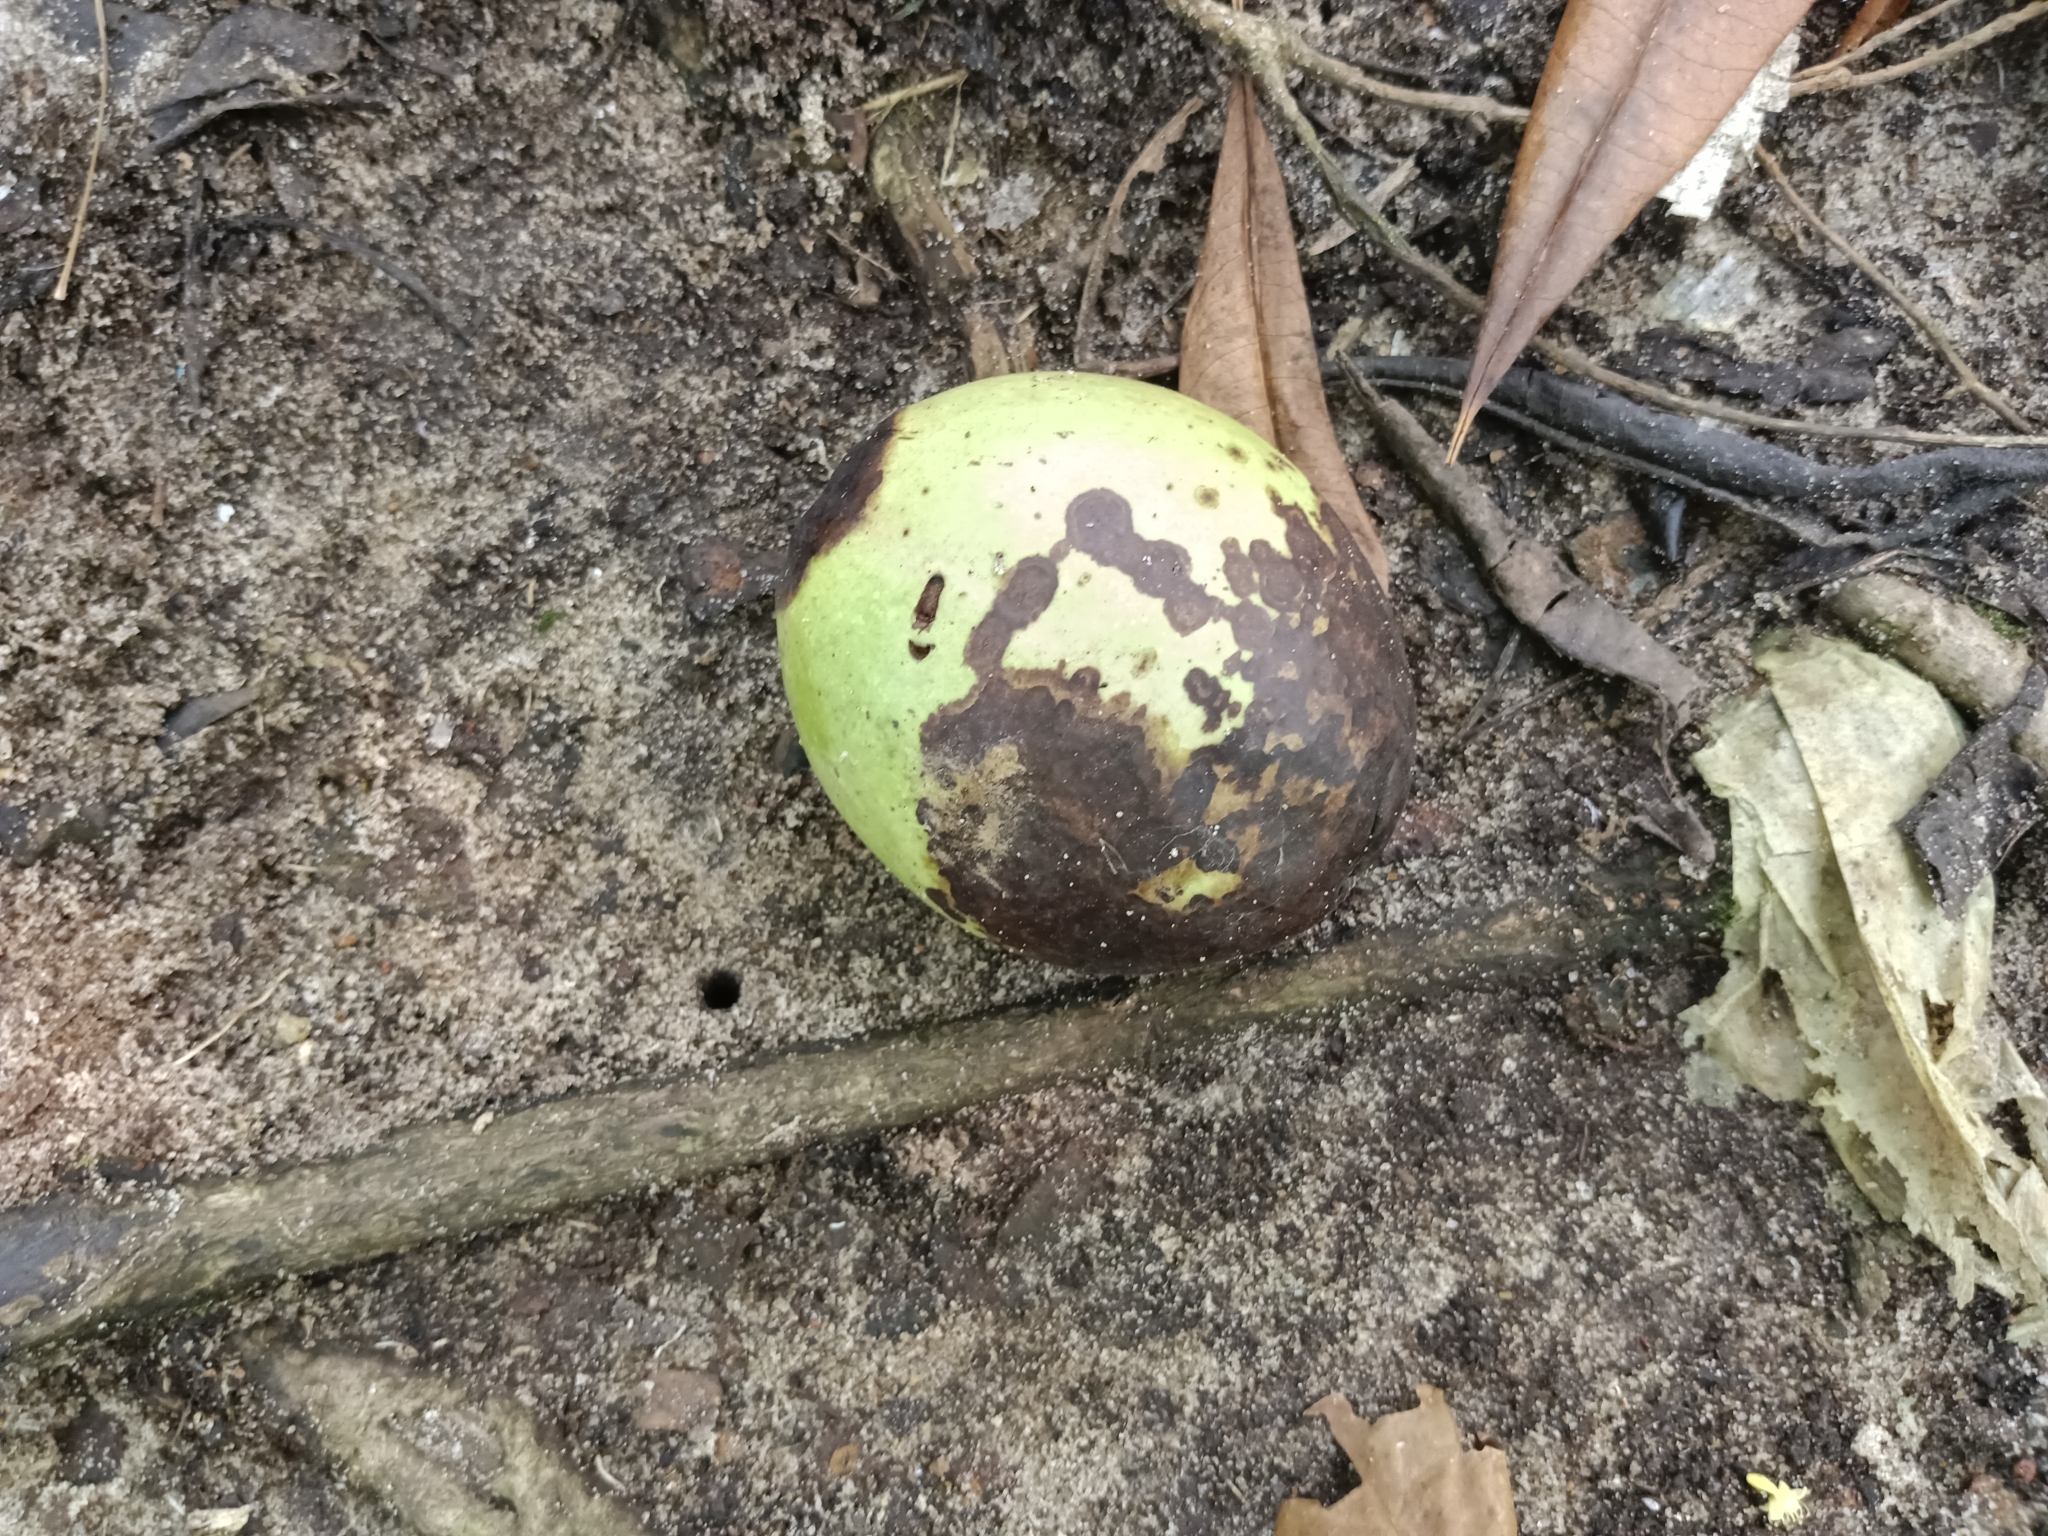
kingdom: Plantae
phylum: Tracheophyta
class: Magnoliopsida
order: Gentianales
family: Apocynaceae
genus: Cerbera
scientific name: Cerbera odollam
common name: Pong-pong
